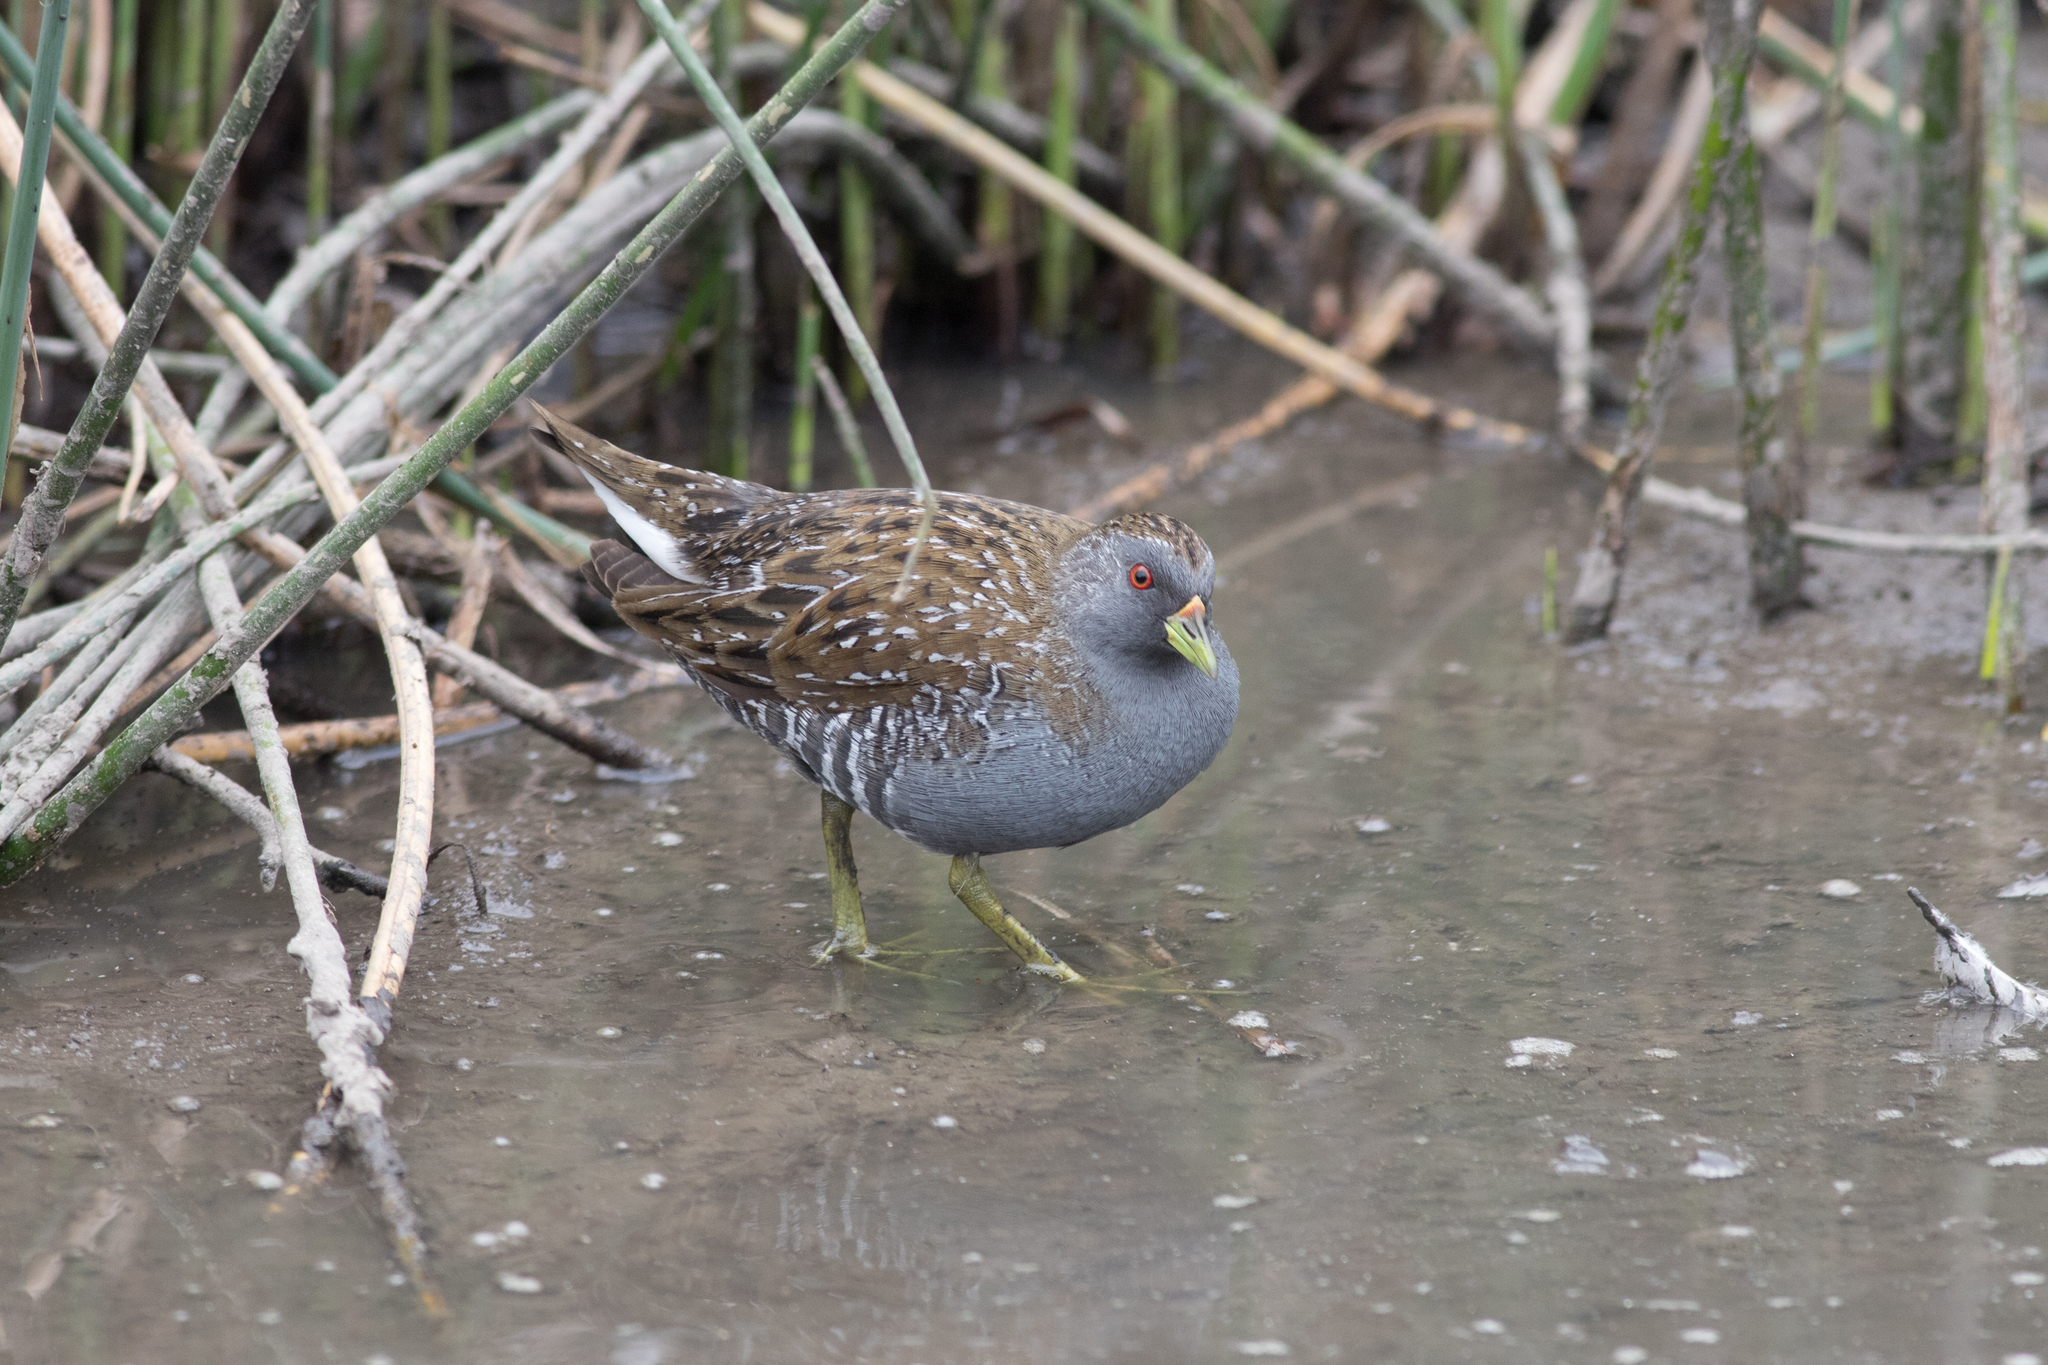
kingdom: Animalia
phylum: Chordata
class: Aves
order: Gruiformes
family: Rallidae
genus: Porzana
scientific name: Porzana fluminea
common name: Australian crake
